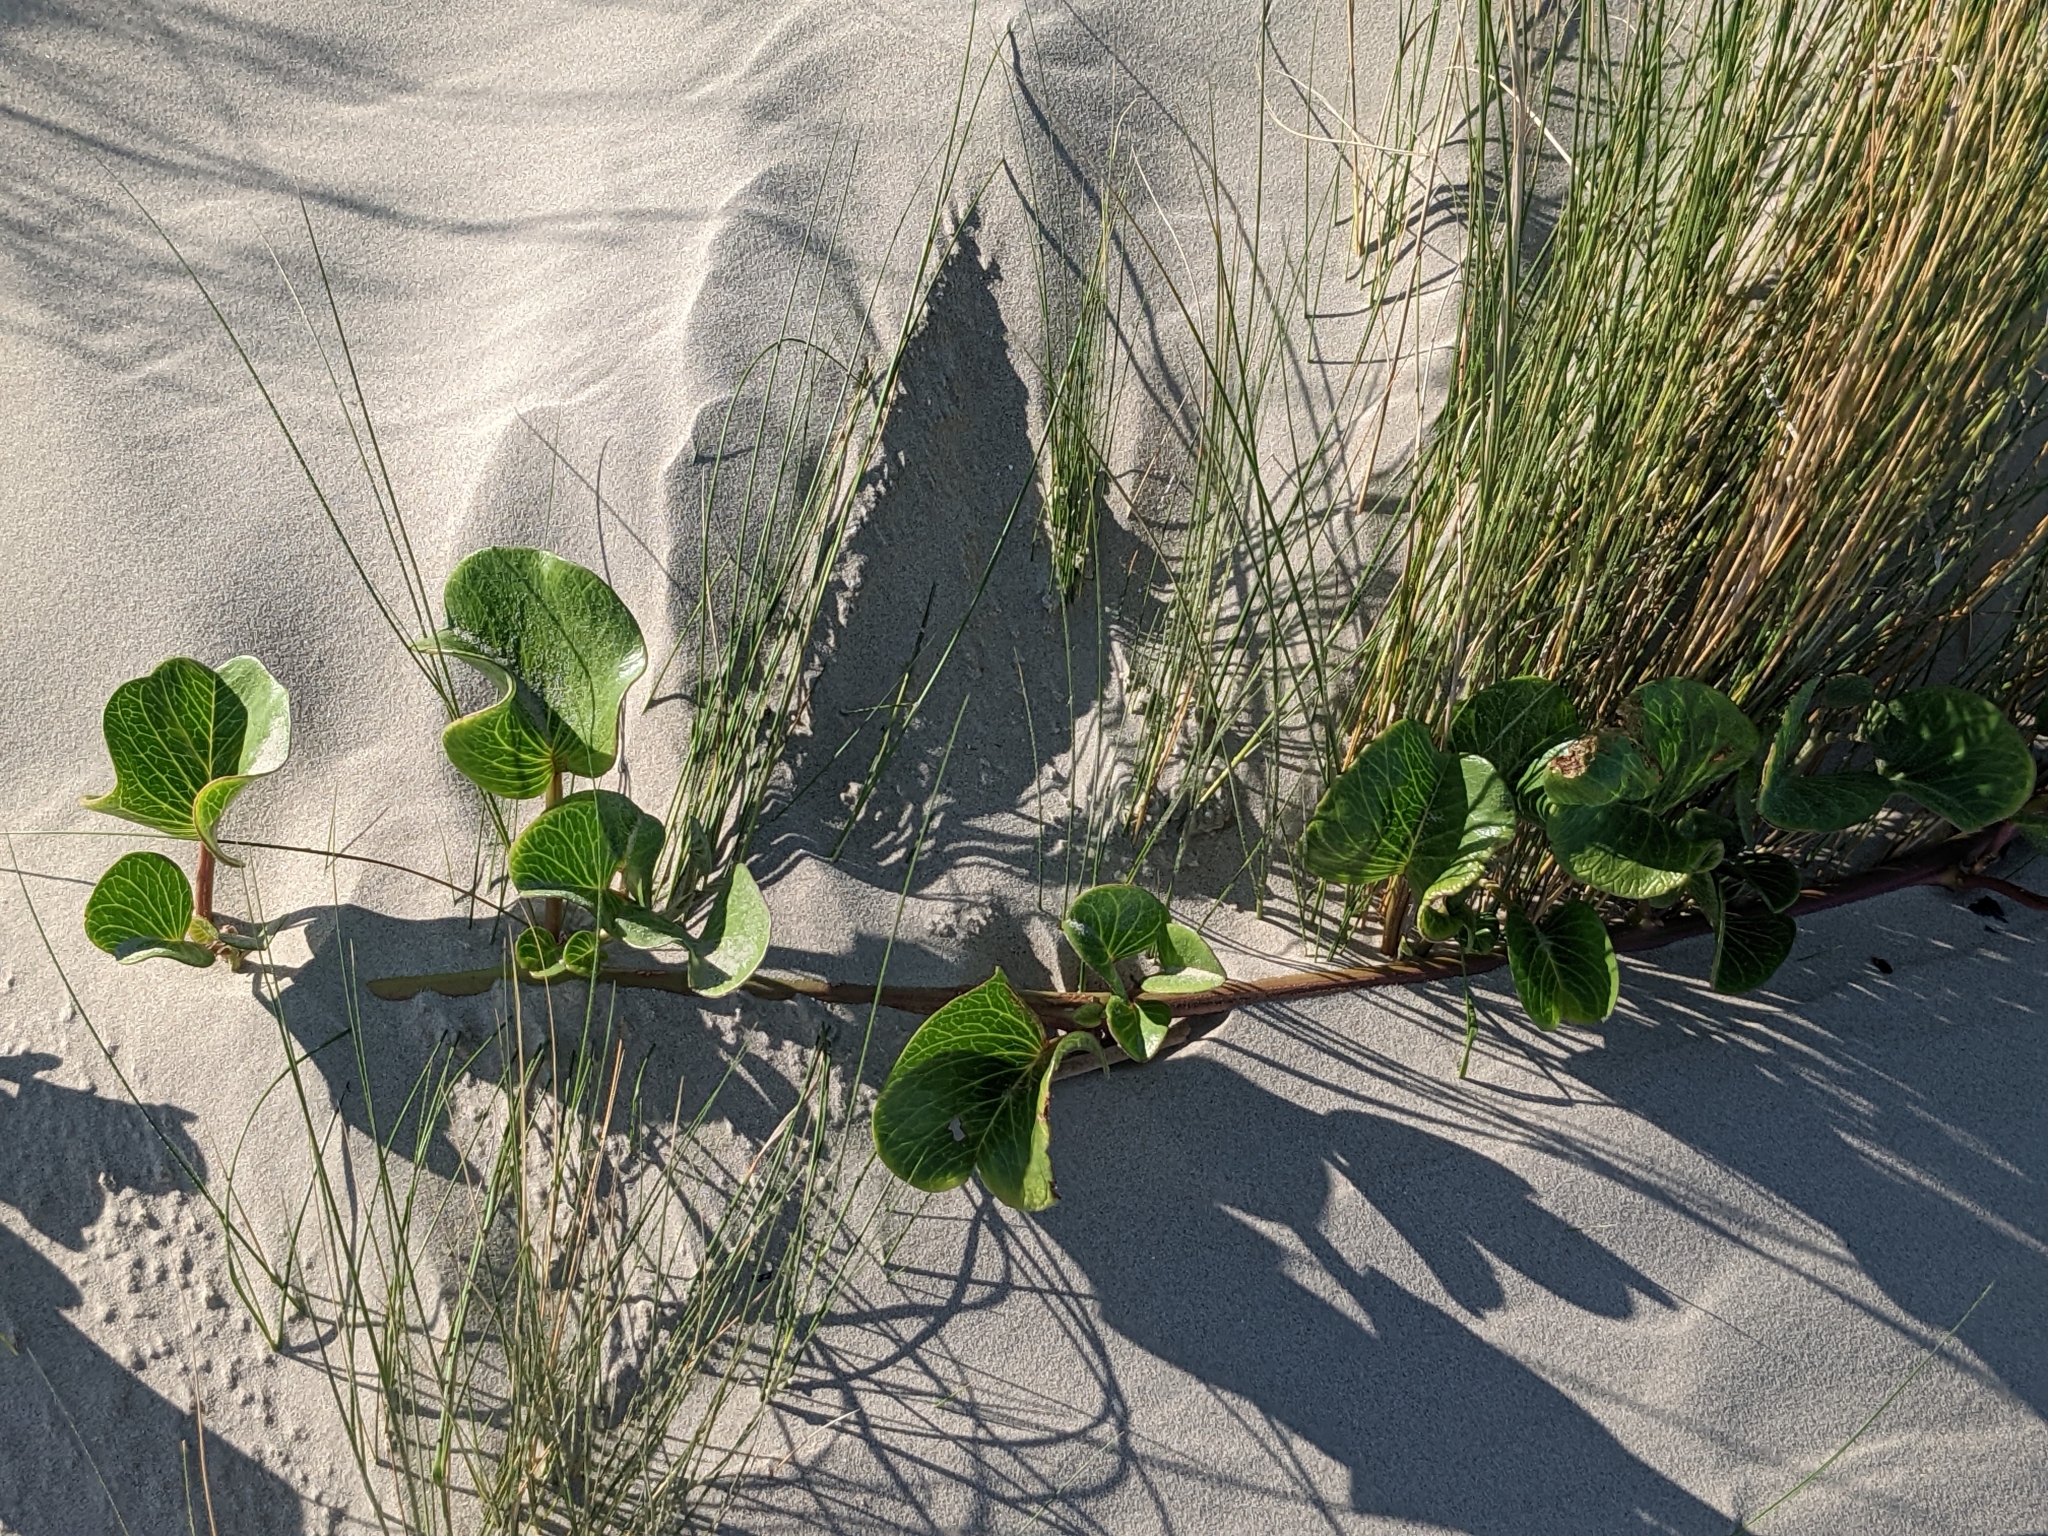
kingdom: Plantae
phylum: Tracheophyta
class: Magnoliopsida
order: Solanales
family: Convolvulaceae
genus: Ipomoea
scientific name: Ipomoea pes-caprae
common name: Beach morning glory
